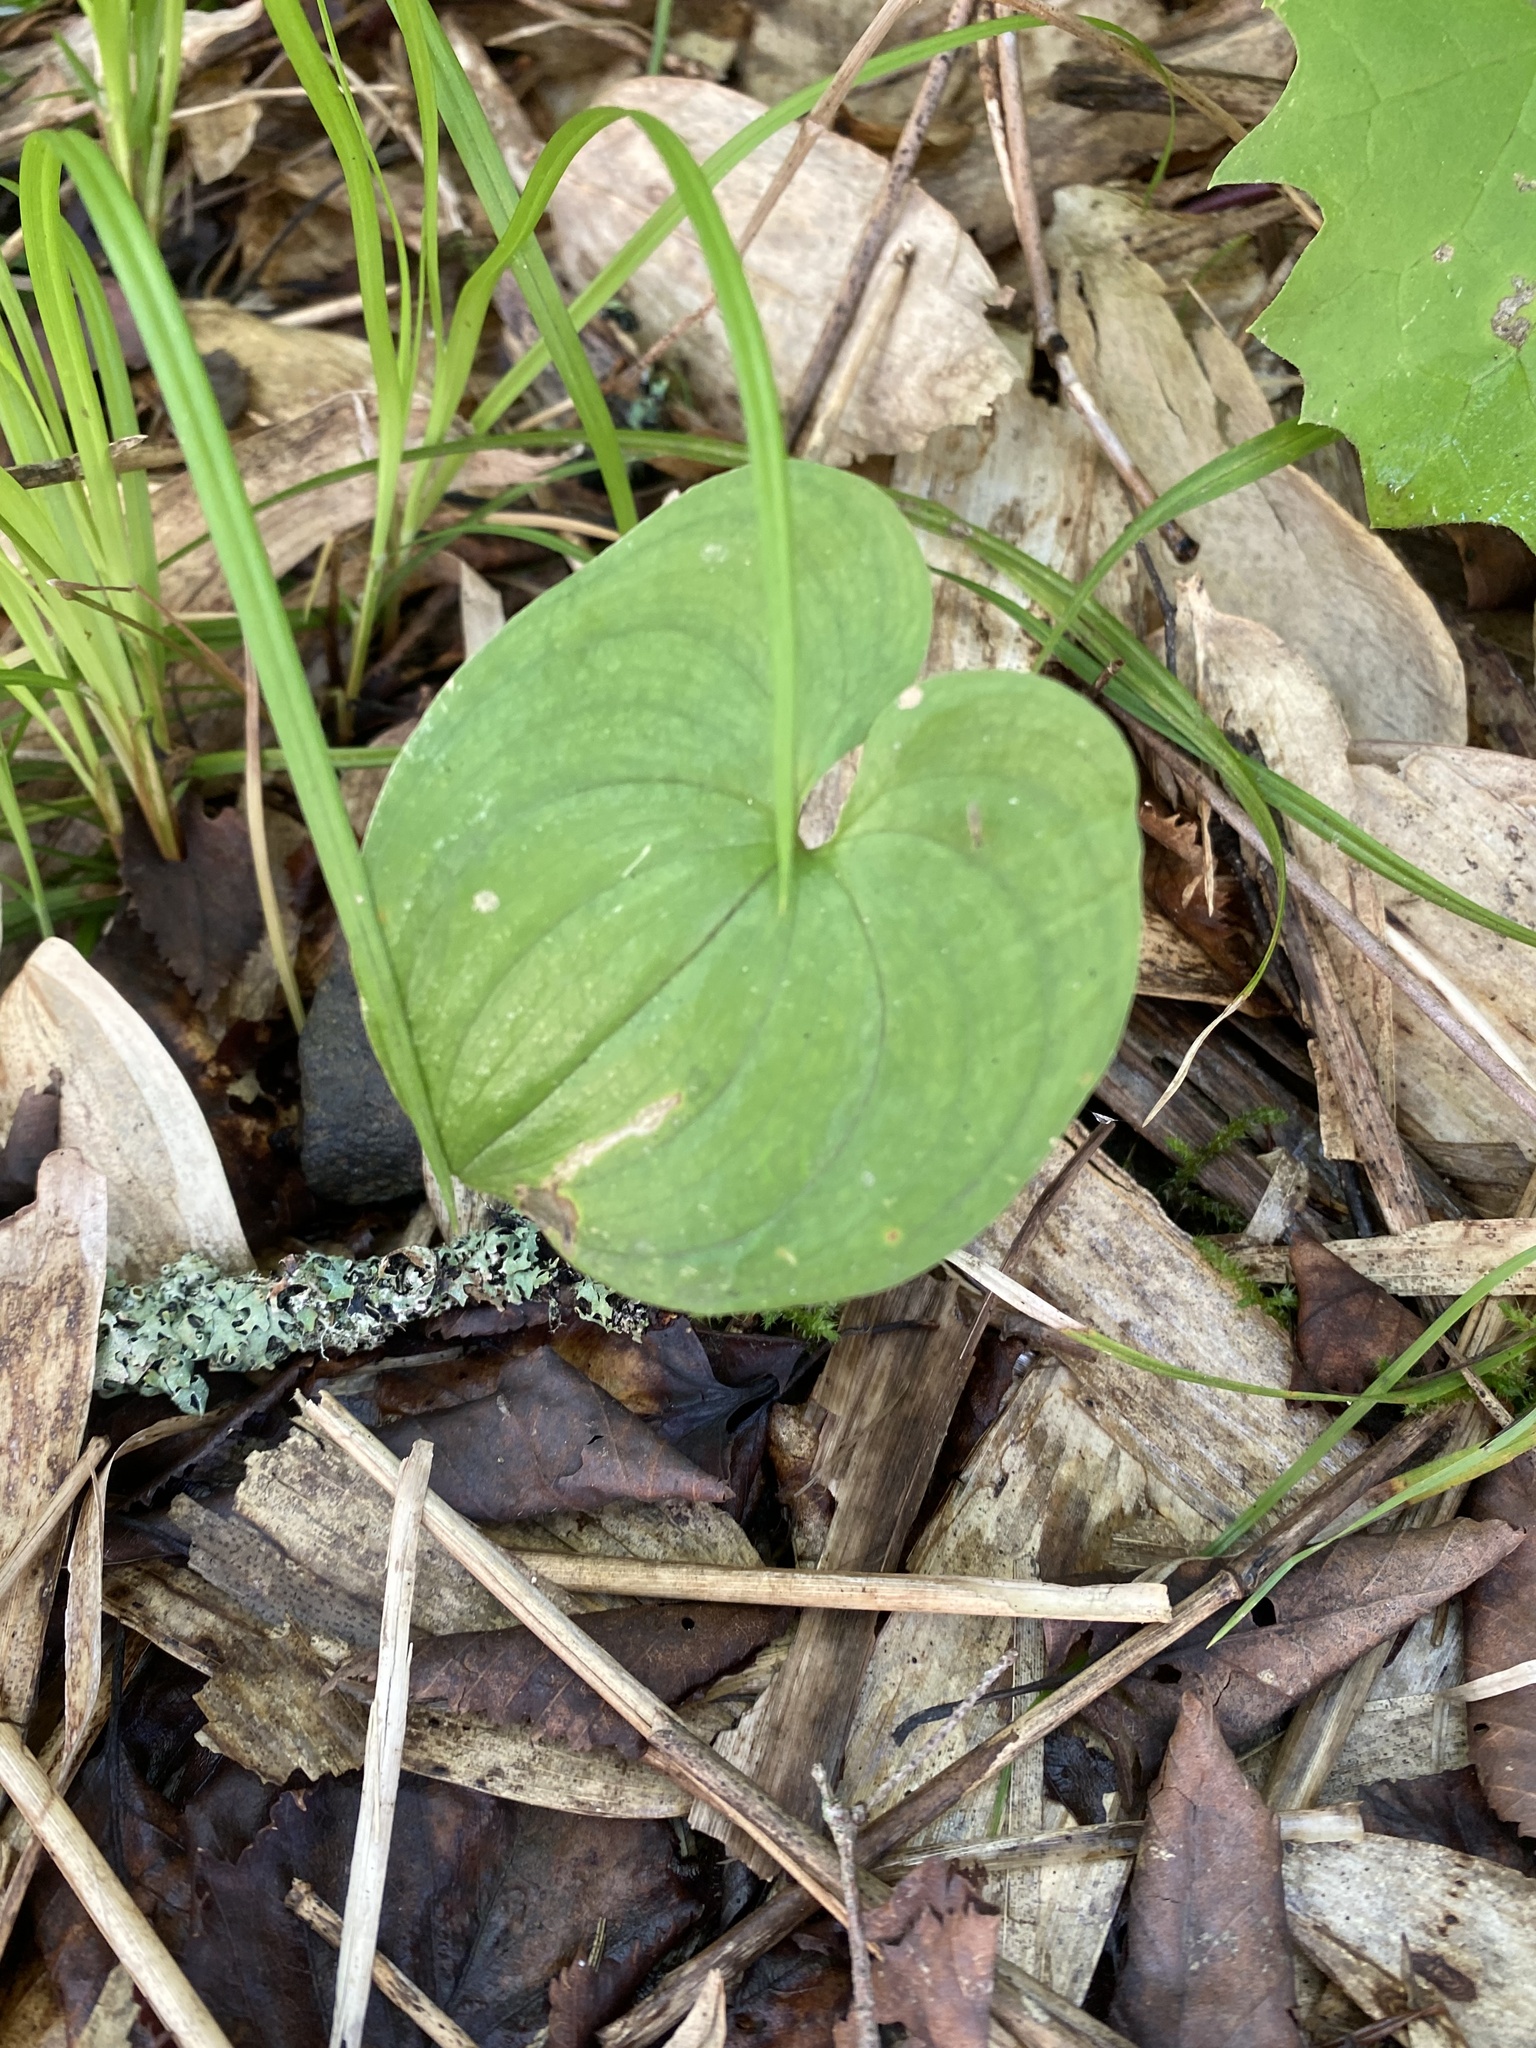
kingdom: Plantae
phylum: Tracheophyta
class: Liliopsida
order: Asparagales
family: Asparagaceae
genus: Maianthemum
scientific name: Maianthemum dilatatum
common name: False lily-of-the-valley
